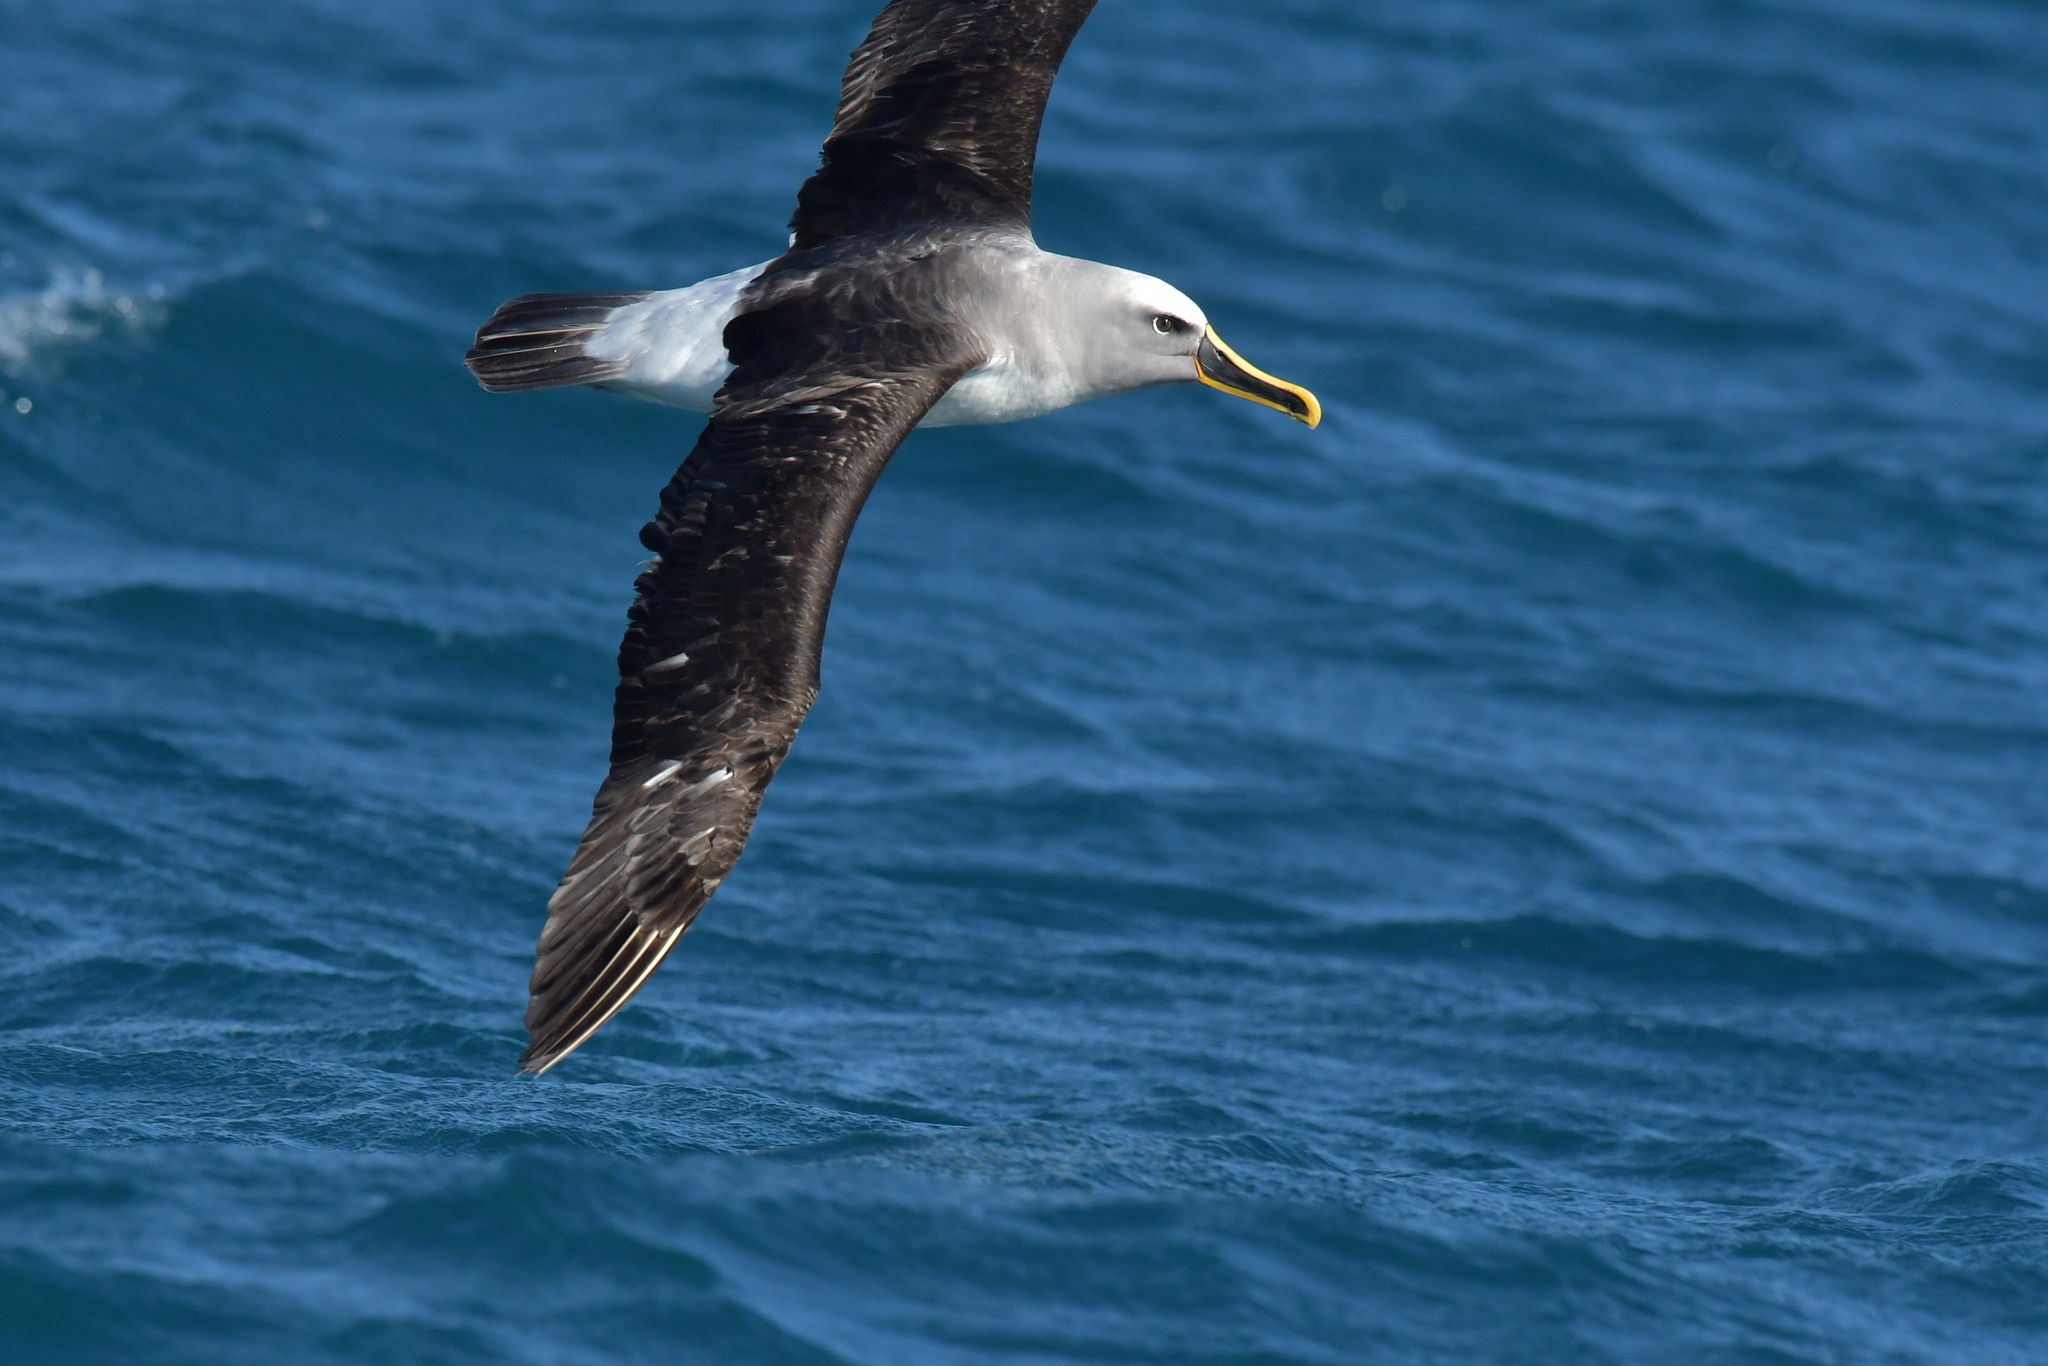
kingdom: Animalia
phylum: Chordata
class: Aves
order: Procellariiformes
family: Diomedeidae
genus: Thalassarche
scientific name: Thalassarche bulleri
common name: Buller's albatross
